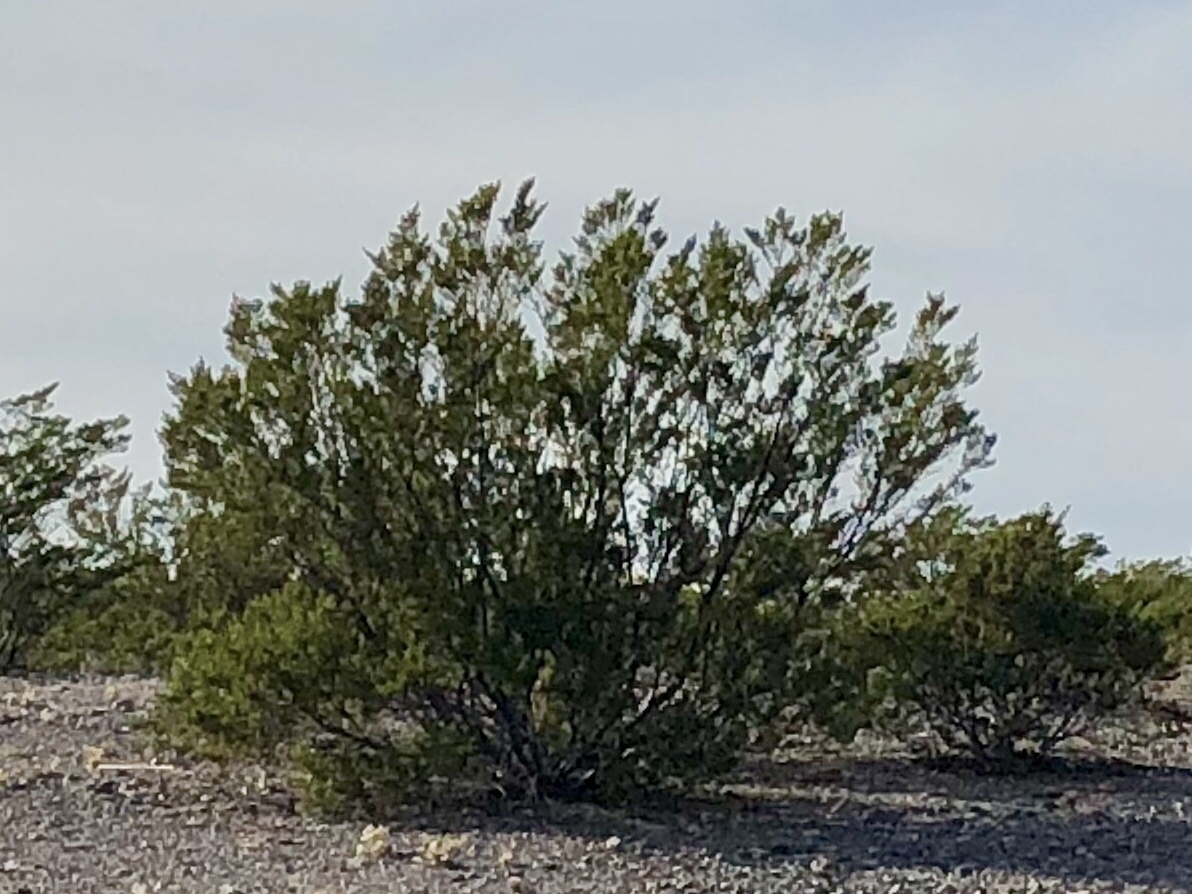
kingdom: Plantae
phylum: Tracheophyta
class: Magnoliopsida
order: Zygophyllales
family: Zygophyllaceae
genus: Larrea
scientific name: Larrea tridentata
